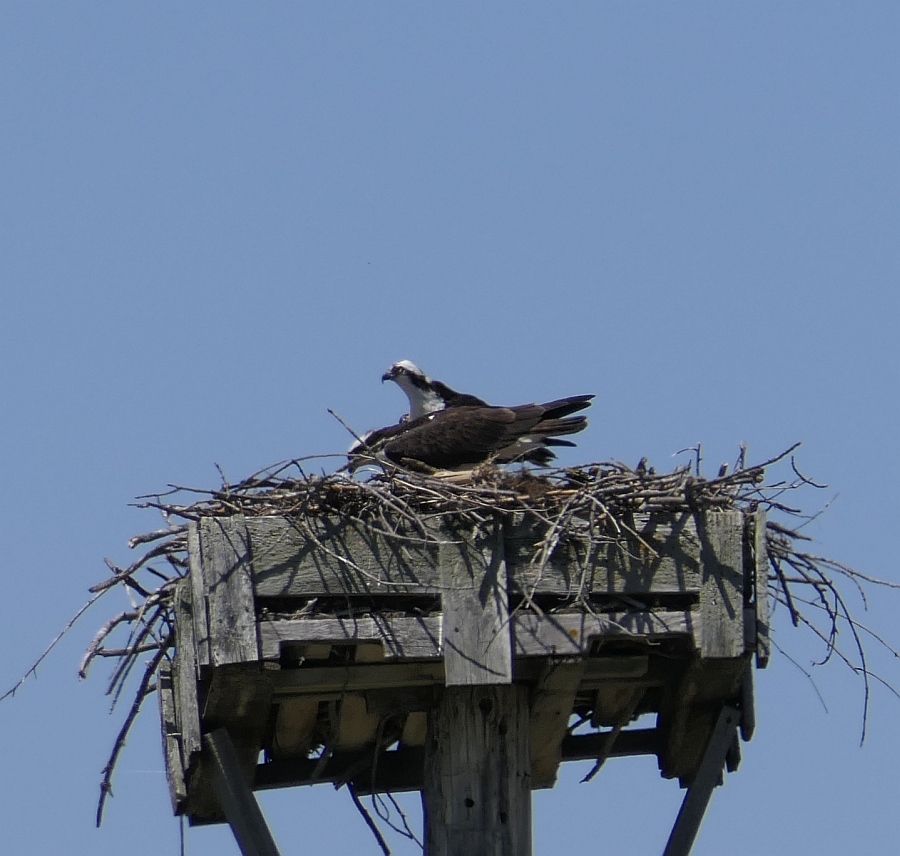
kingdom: Animalia
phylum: Chordata
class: Aves
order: Accipitriformes
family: Pandionidae
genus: Pandion
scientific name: Pandion haliaetus
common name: Osprey
